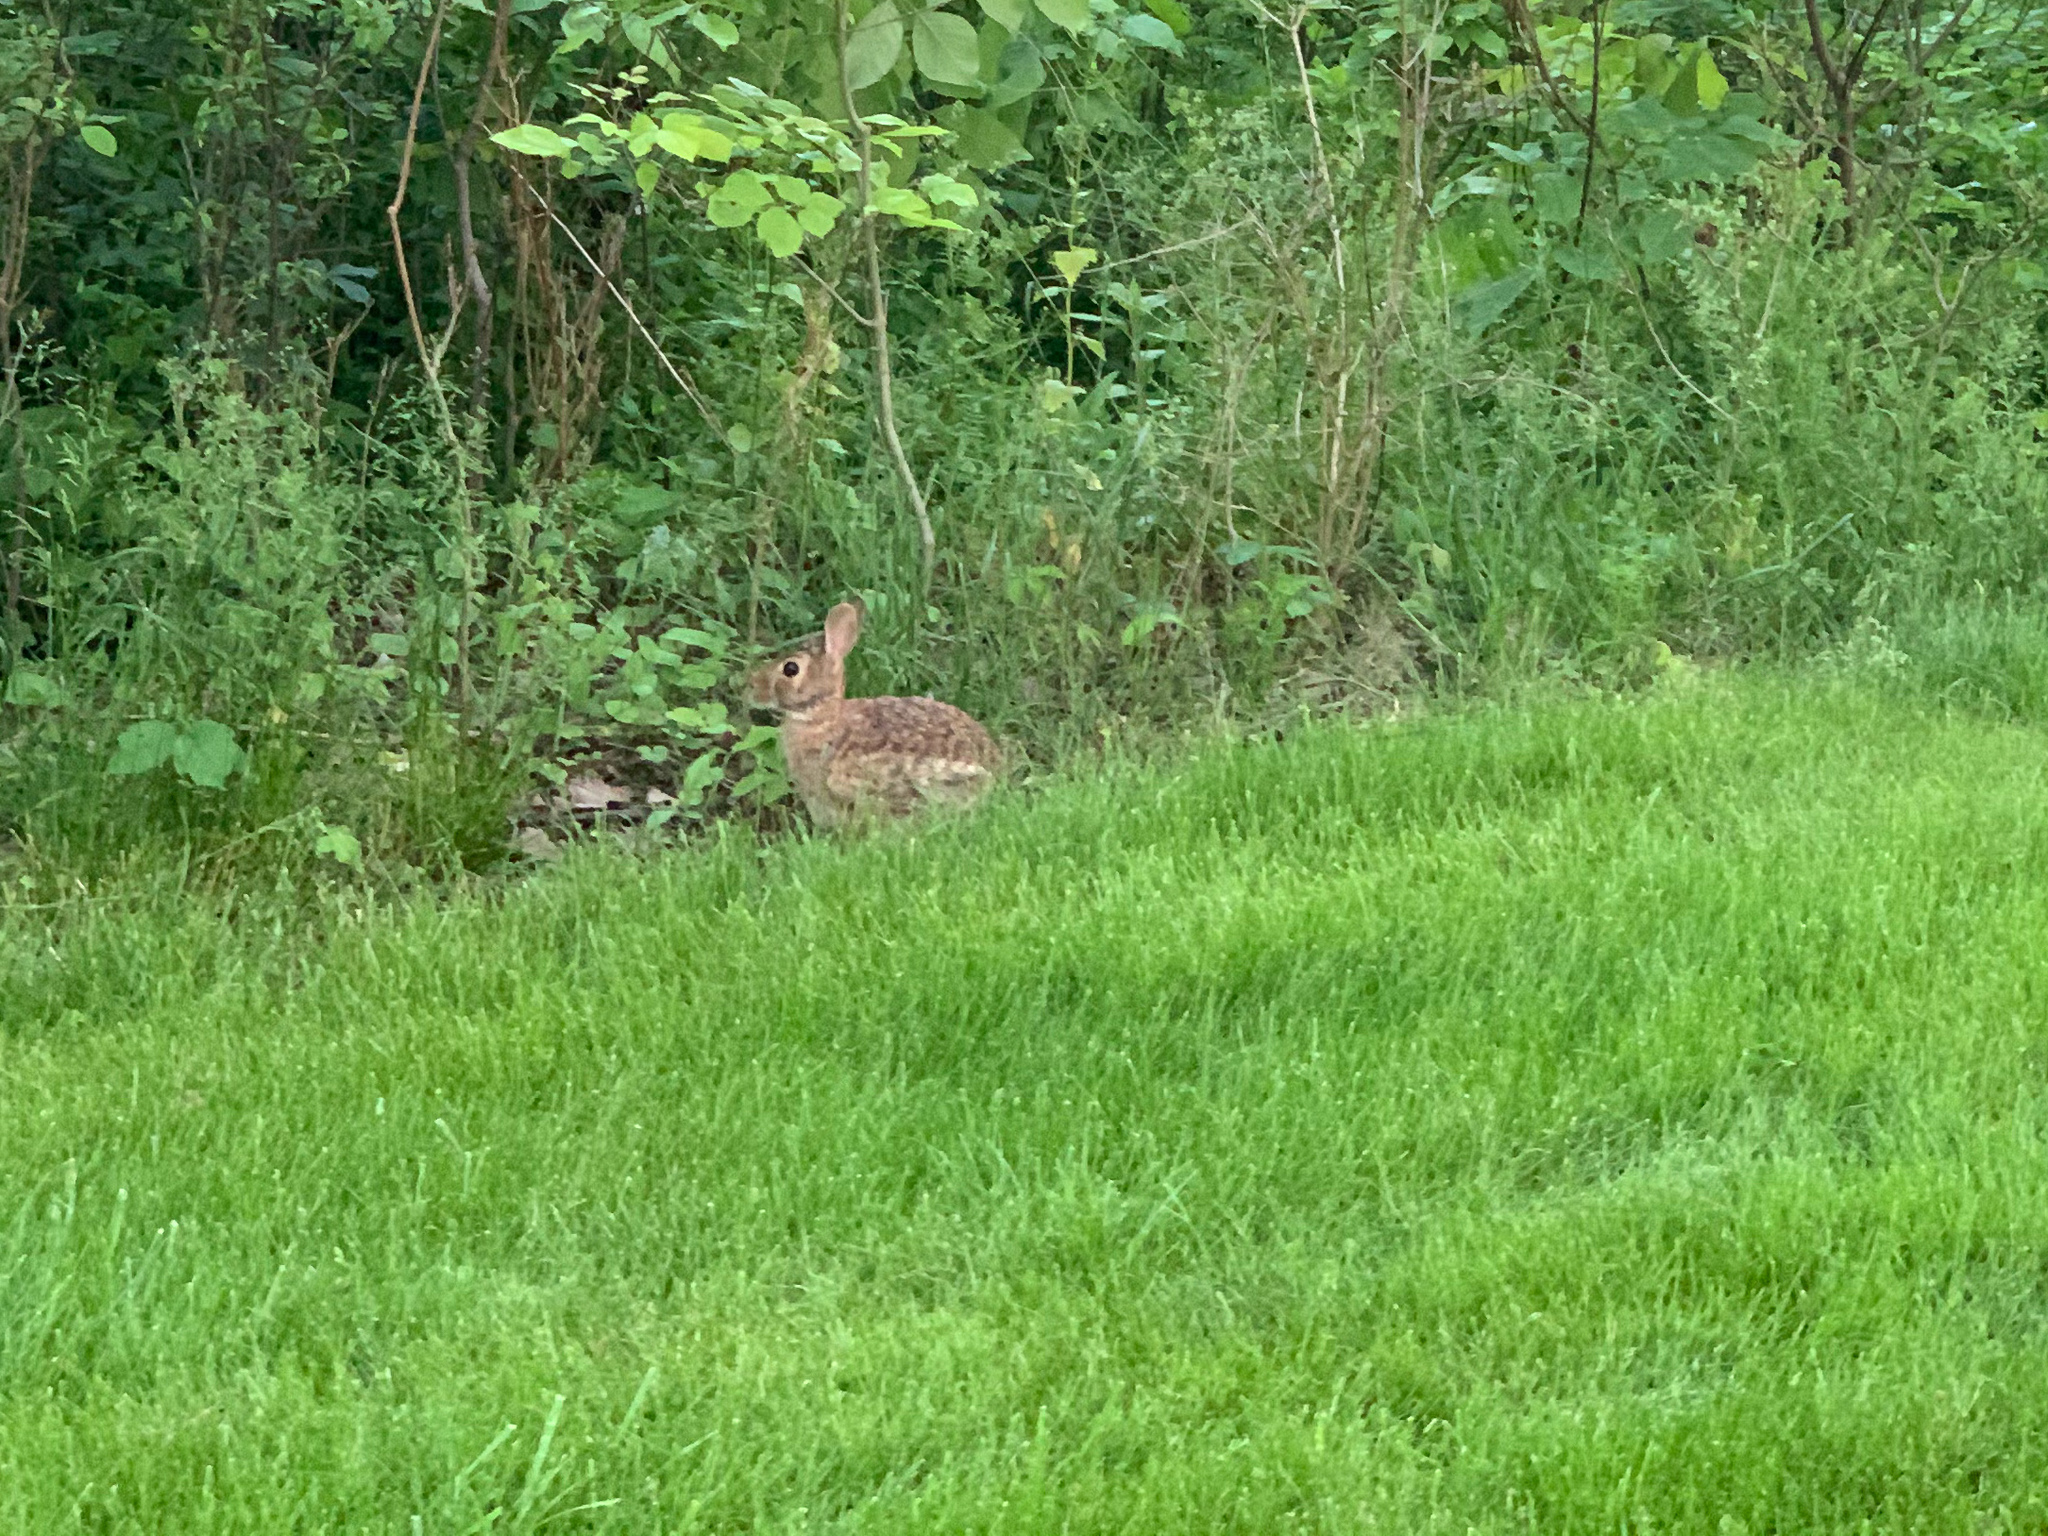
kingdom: Animalia
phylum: Chordata
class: Mammalia
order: Lagomorpha
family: Leporidae
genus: Sylvilagus
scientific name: Sylvilagus floridanus
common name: Eastern cottontail
